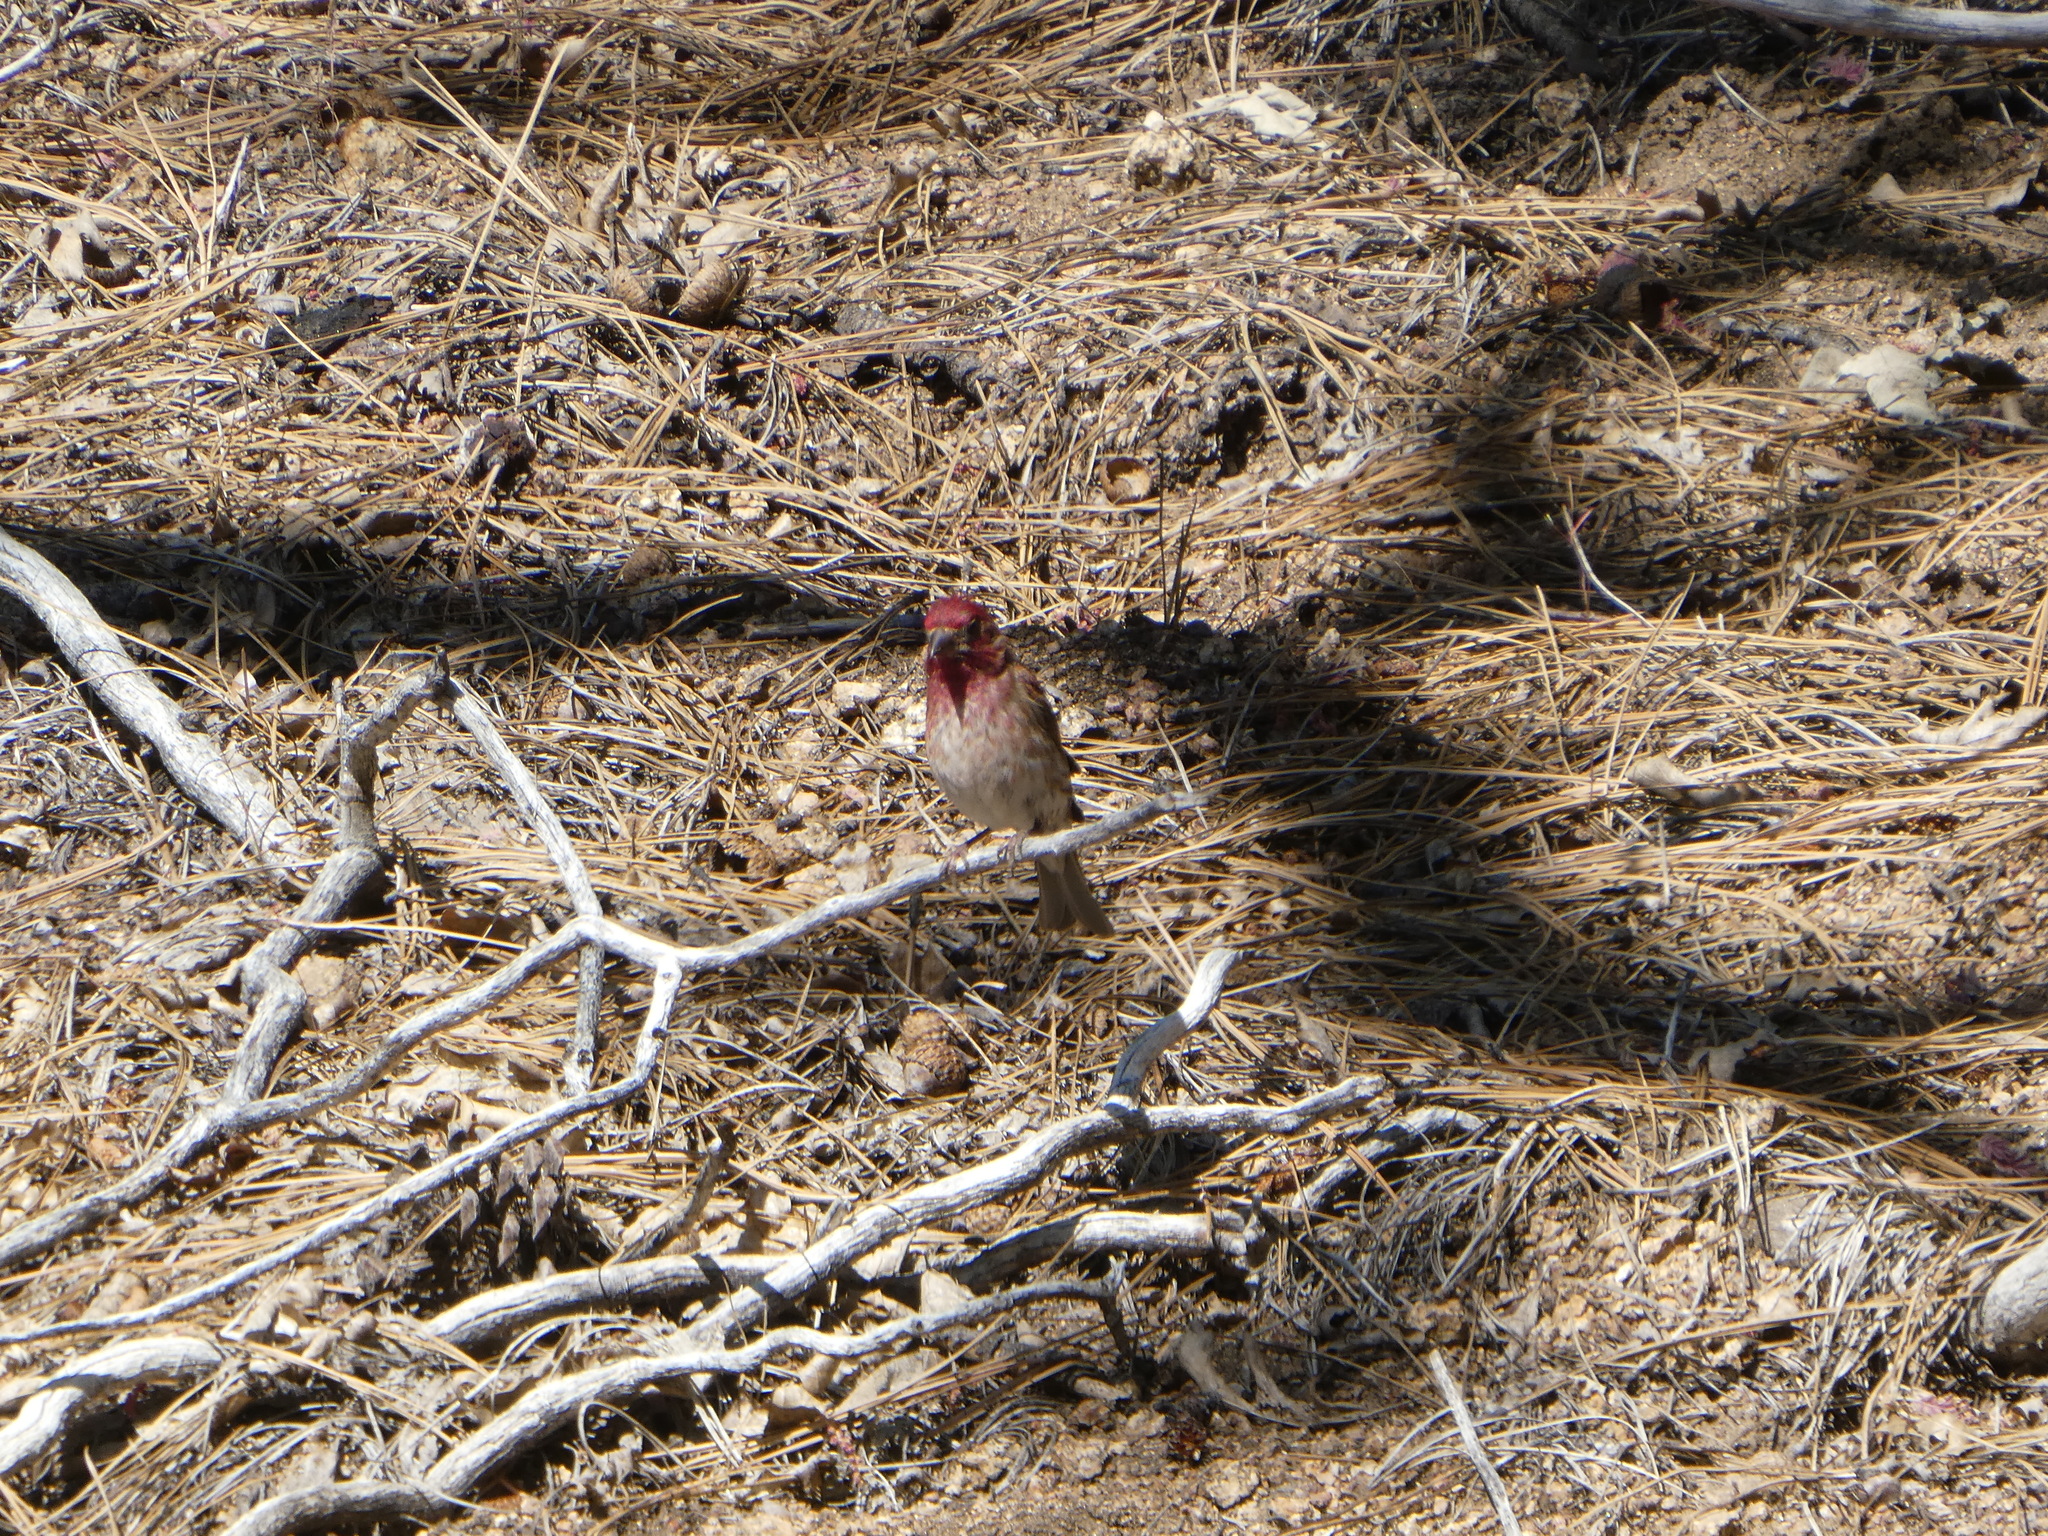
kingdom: Animalia
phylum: Chordata
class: Aves
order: Passeriformes
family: Fringillidae
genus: Haemorhous
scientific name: Haemorhous purpureus
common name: Purple finch
